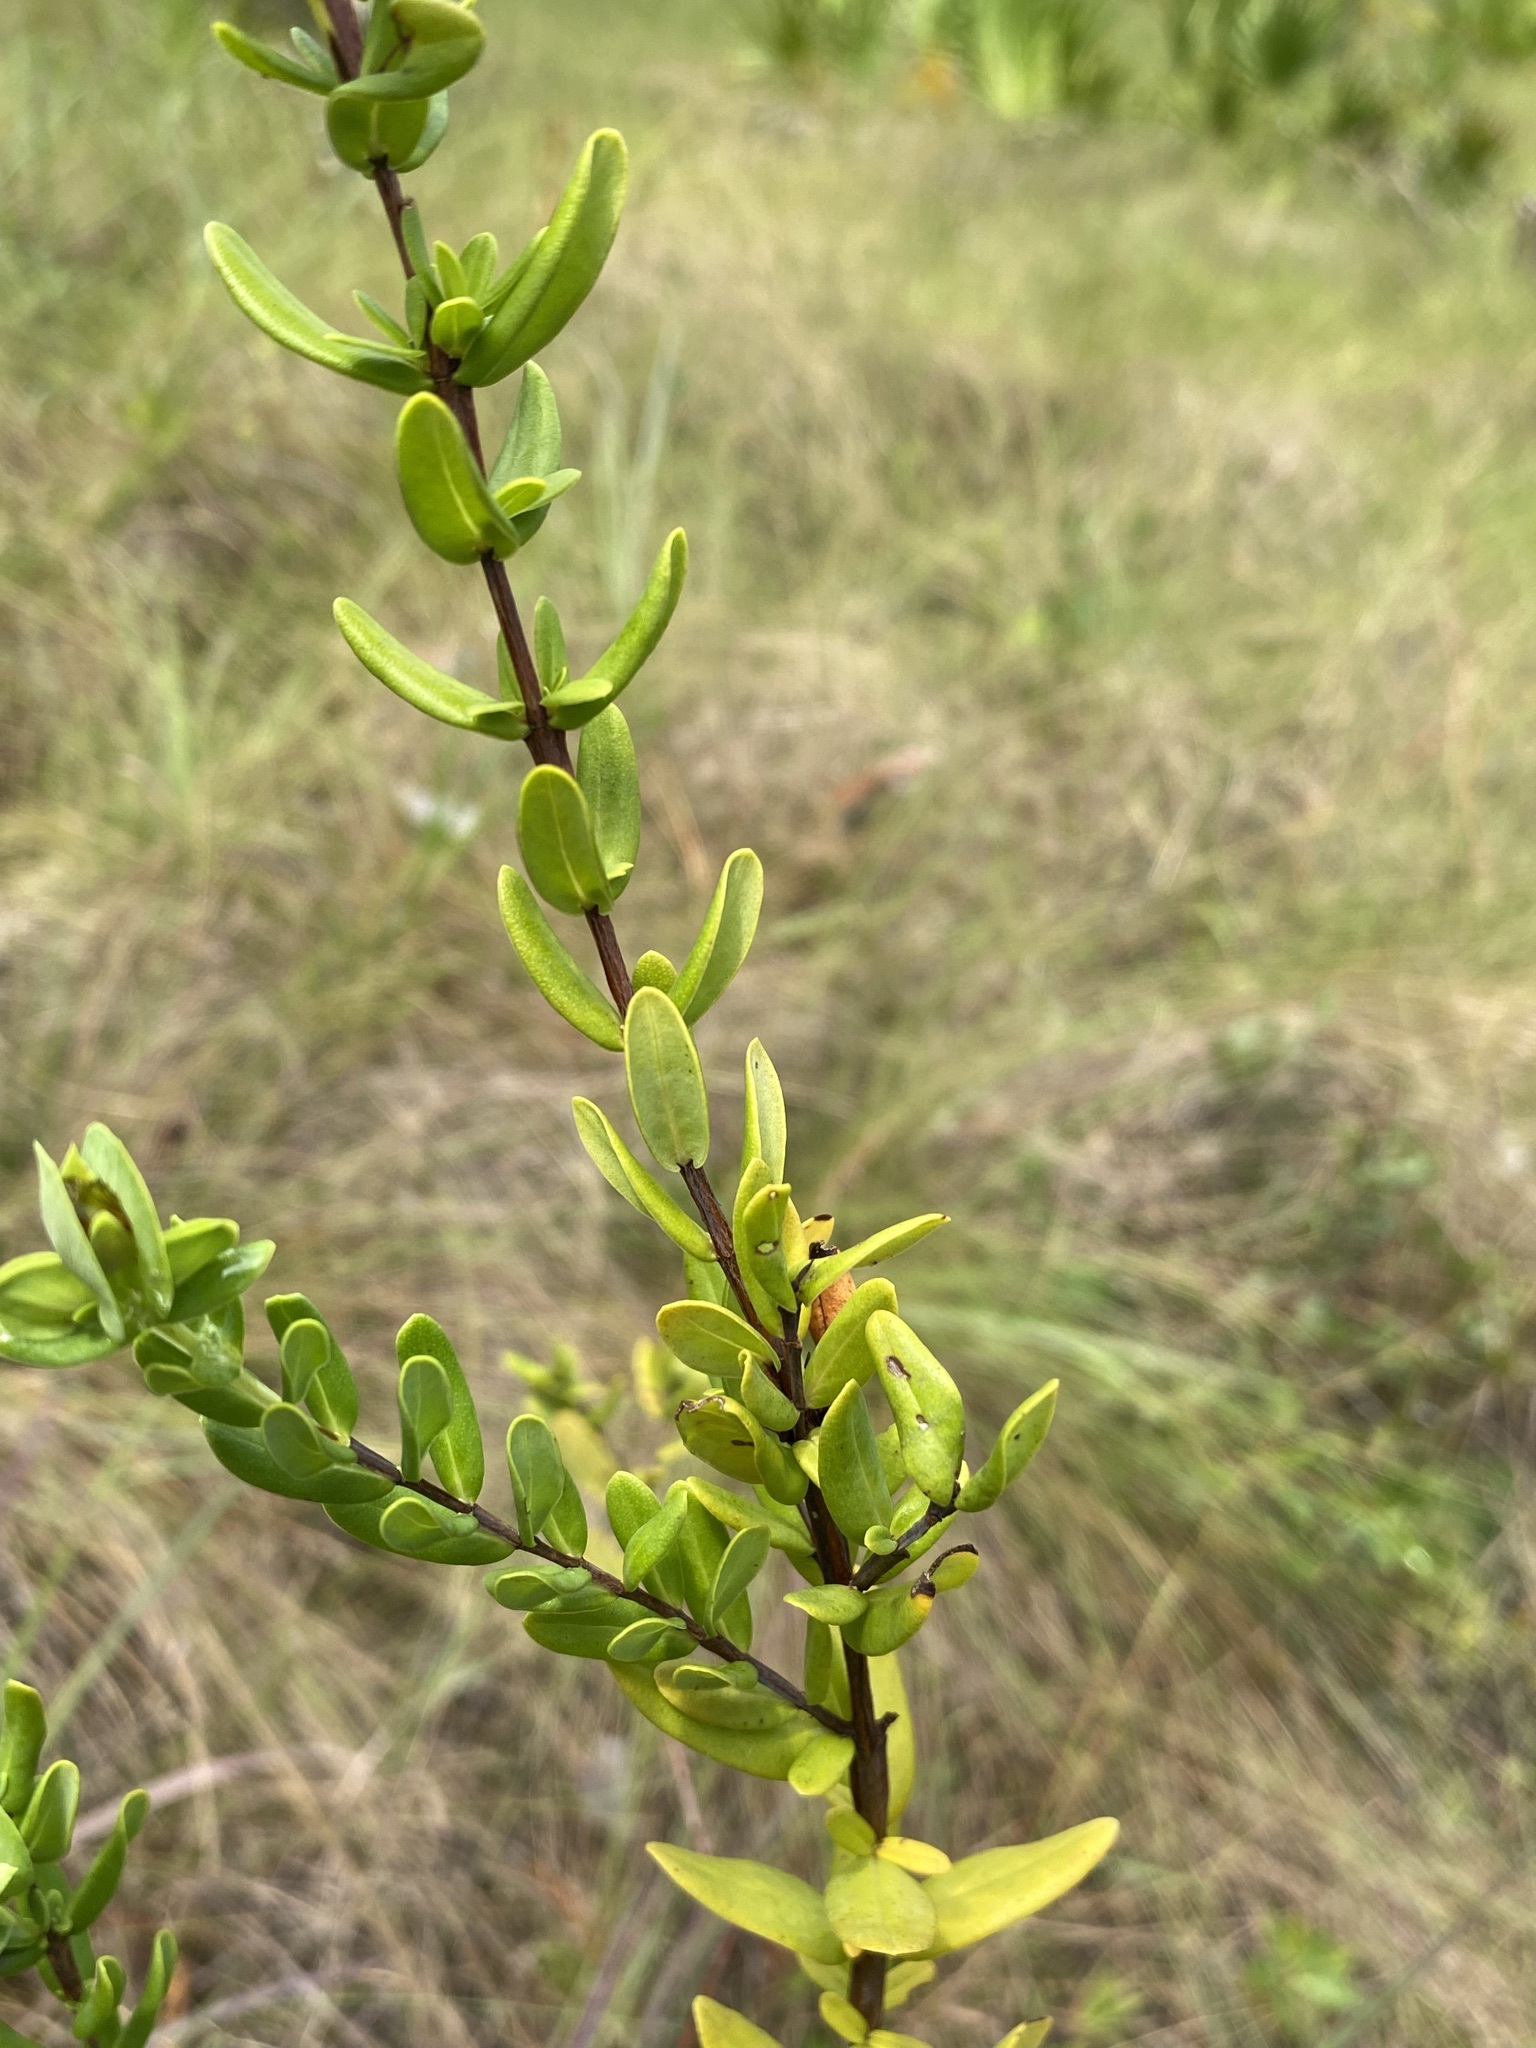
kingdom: Plantae
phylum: Tracheophyta
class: Magnoliopsida
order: Malpighiales
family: Hypericaceae
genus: Hypericum
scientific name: Hypericum crux-andreae
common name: St.-peter's-wort
